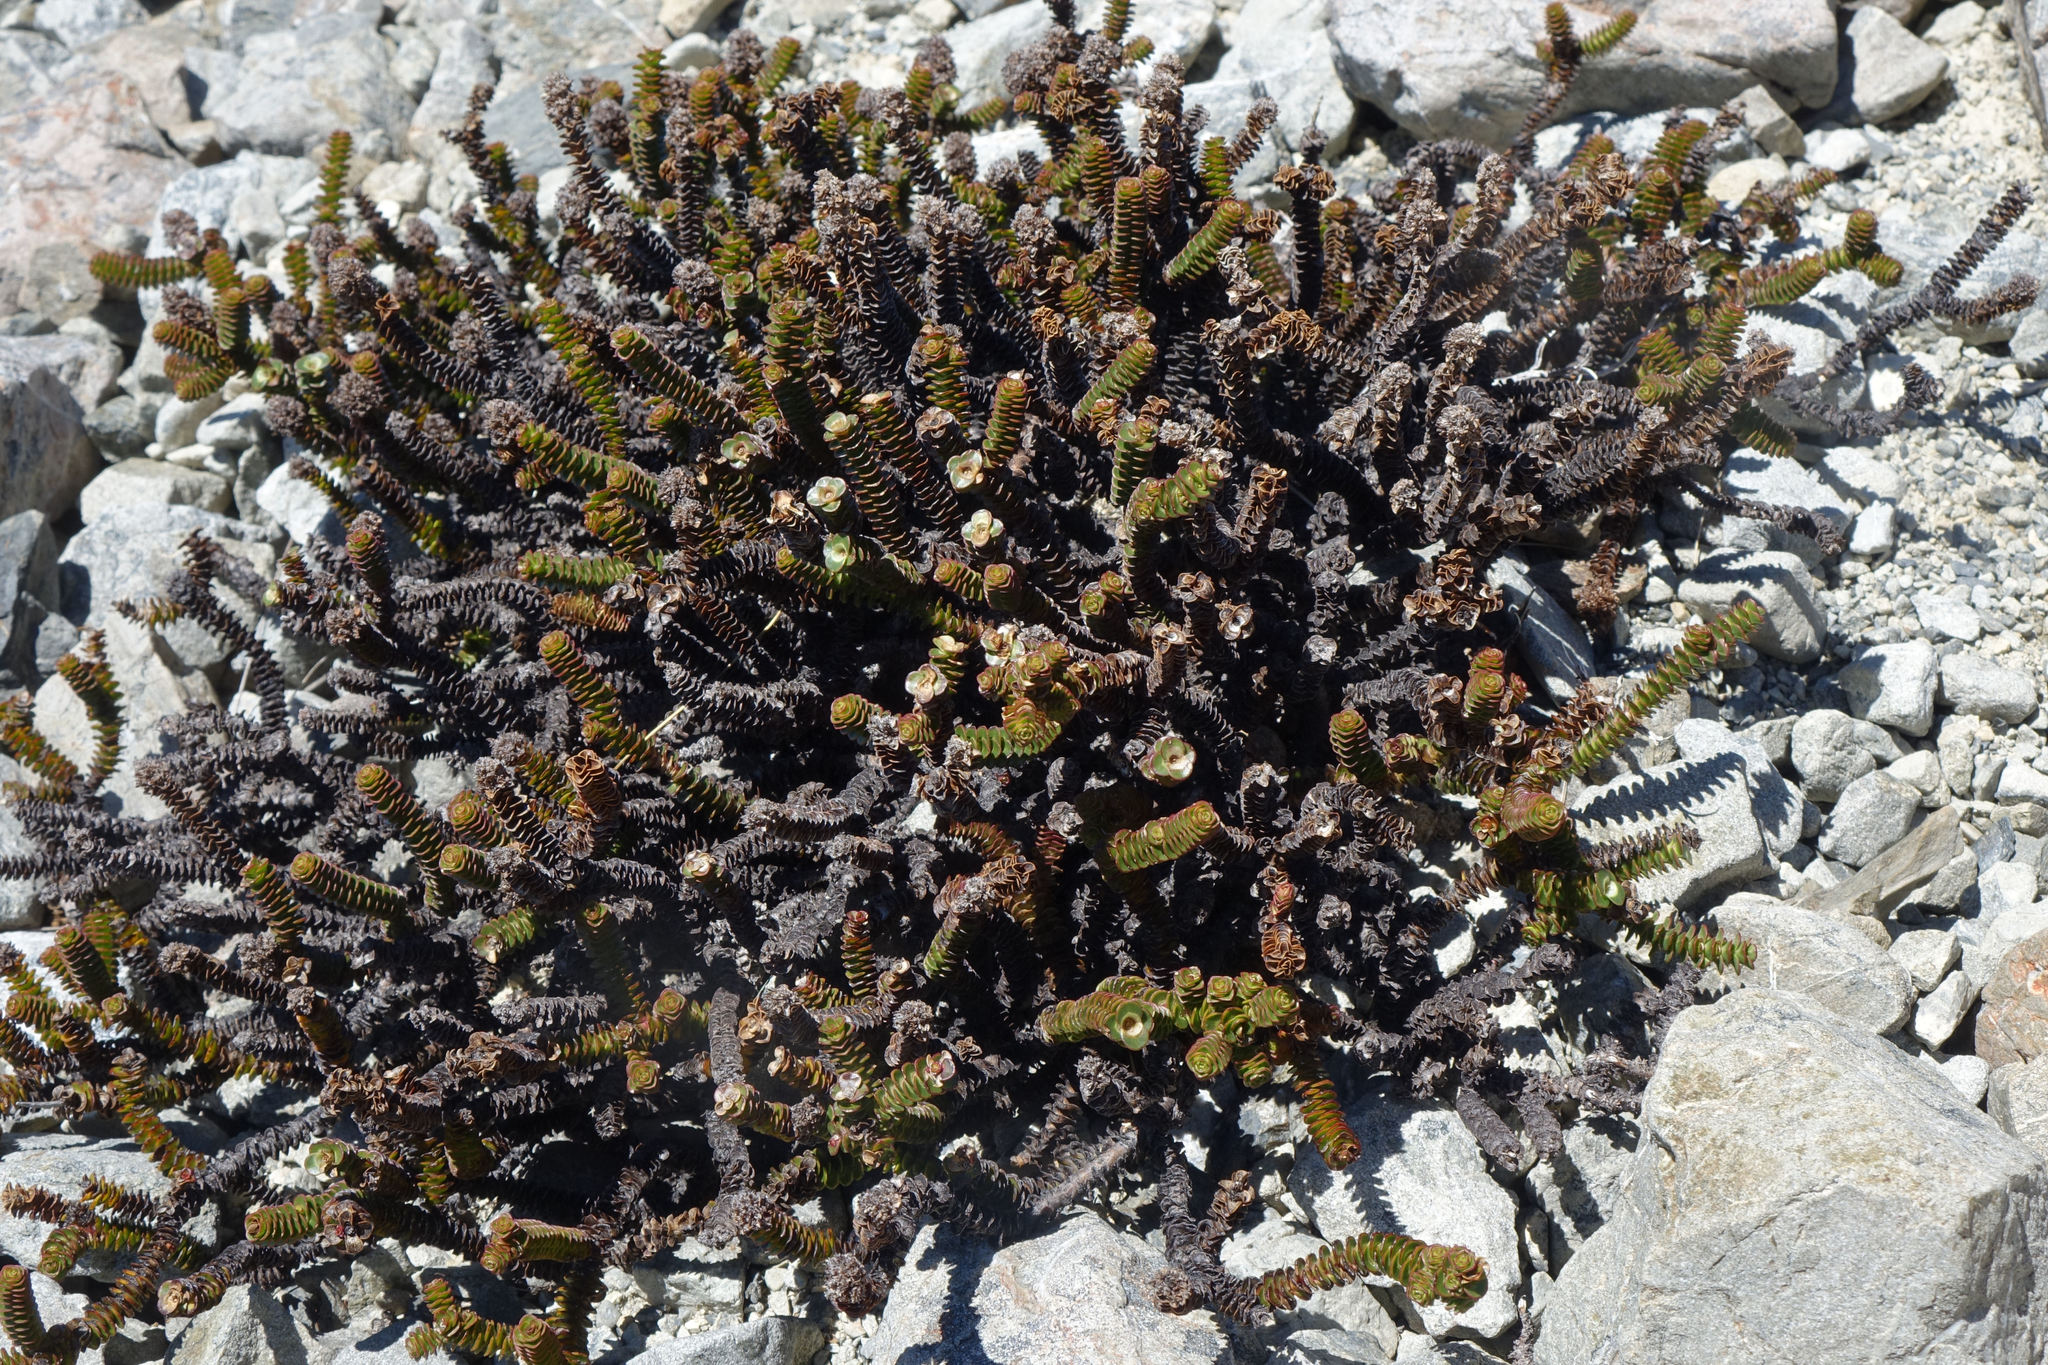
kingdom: Plantae
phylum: Tracheophyta
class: Magnoliopsida
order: Lamiales
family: Plantaginaceae
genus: Veronica
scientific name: Veronica epacridea
